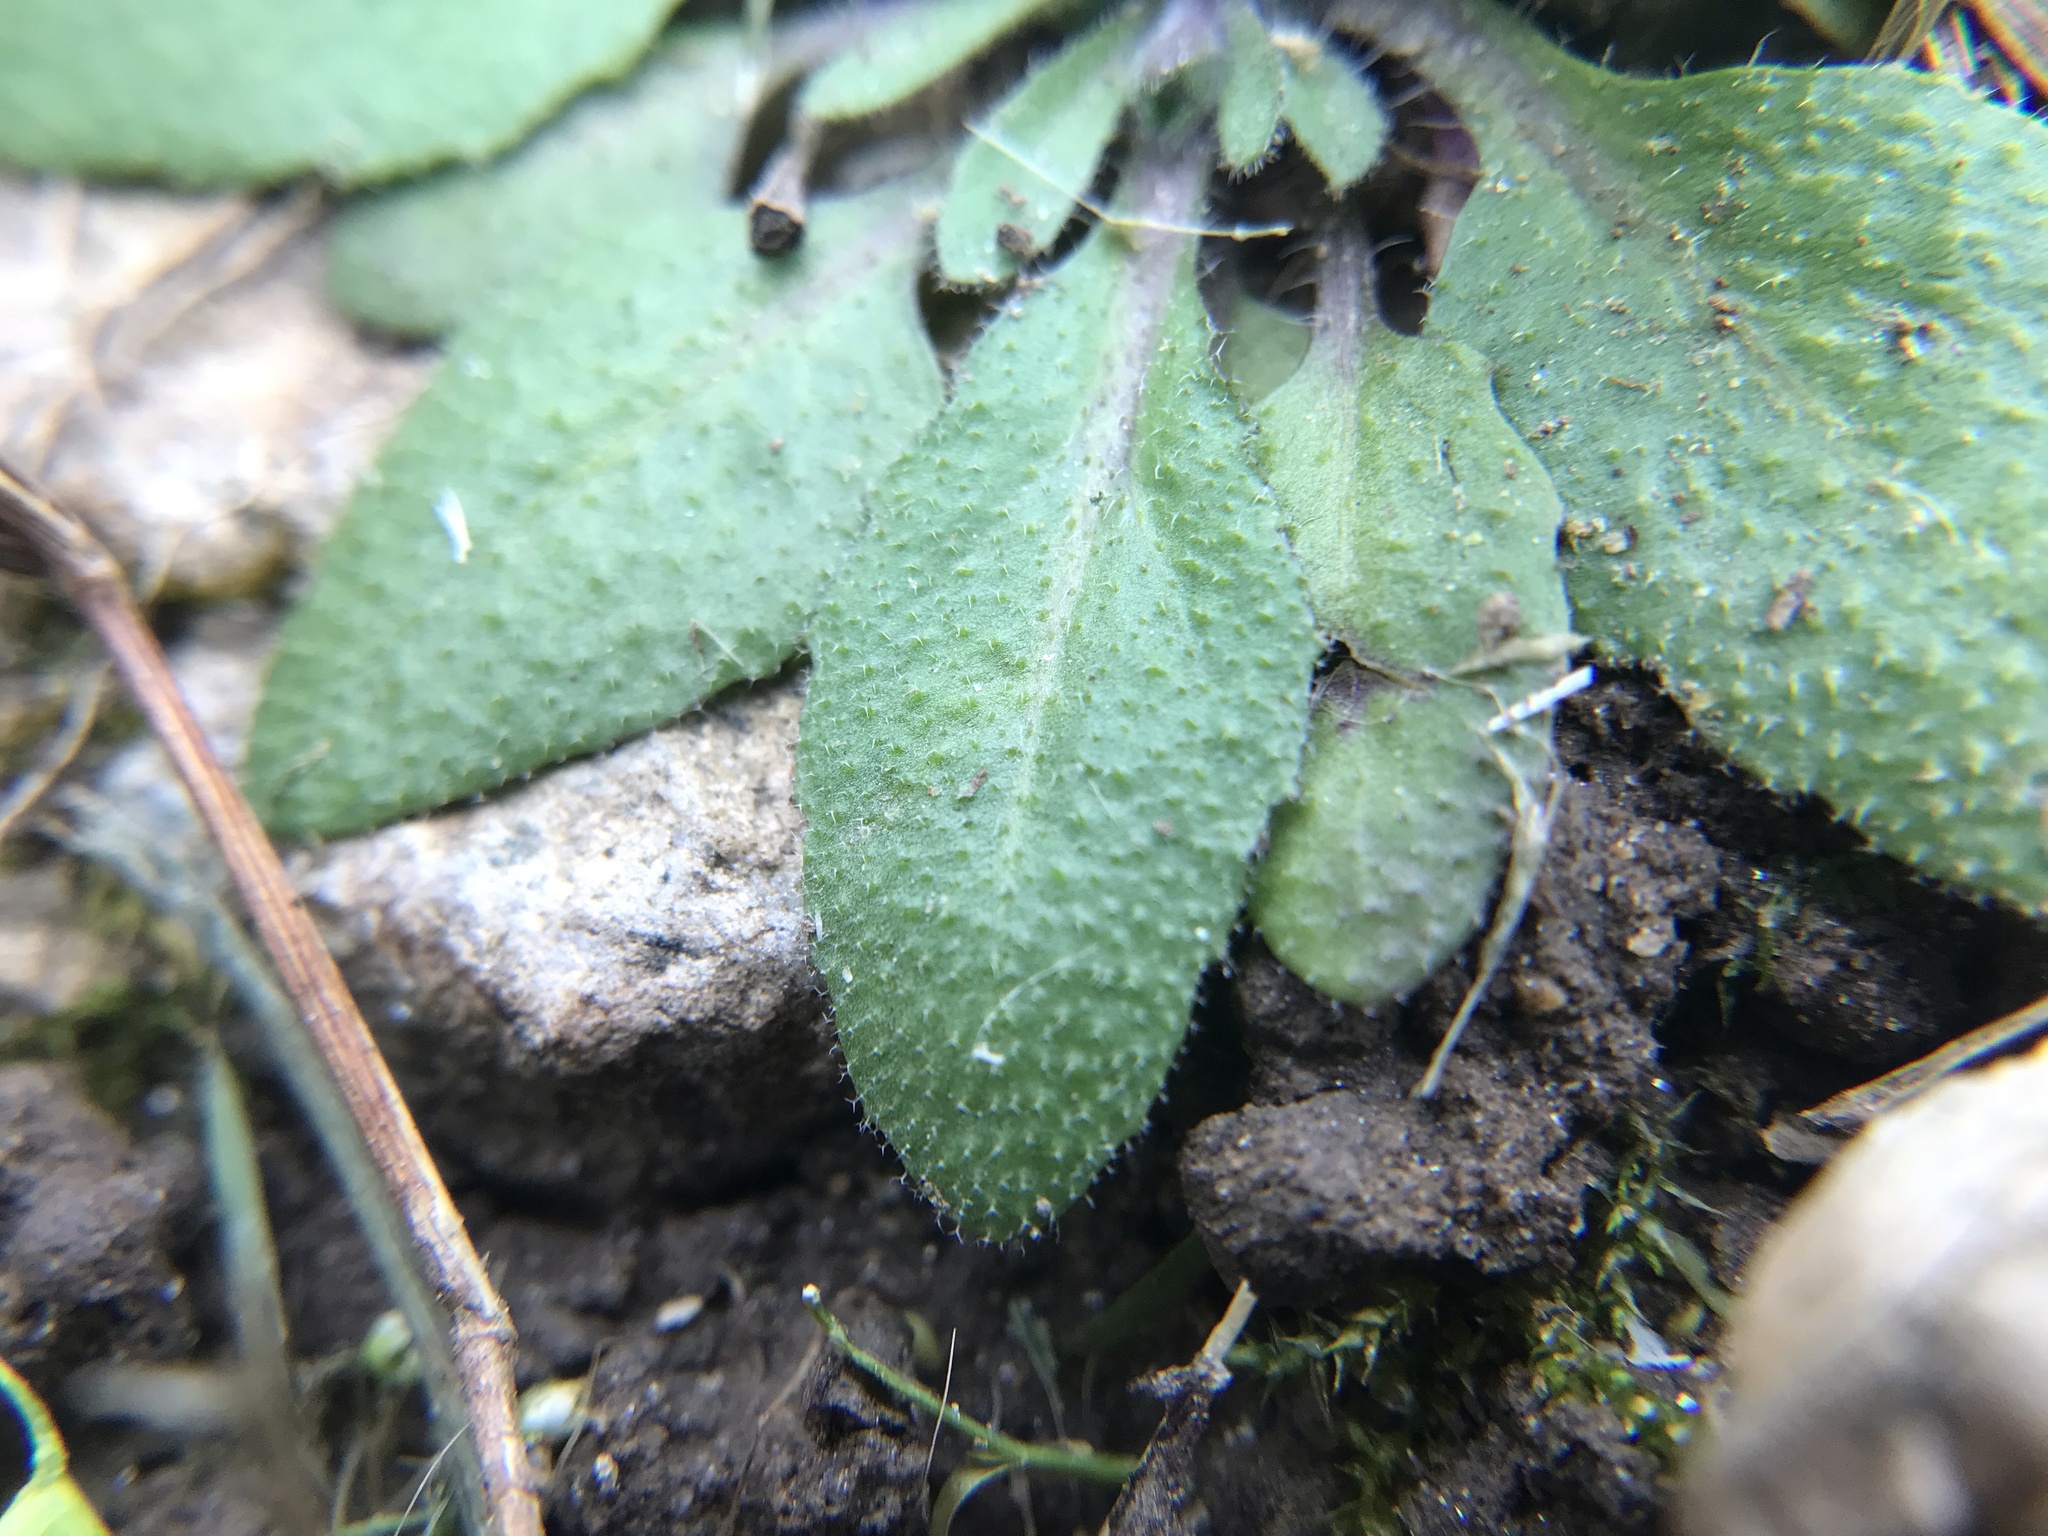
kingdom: Plantae
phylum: Tracheophyta
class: Magnoliopsida
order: Brassicales
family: Brassicaceae
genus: Arabidopsis
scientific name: Arabidopsis thaliana
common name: Thale cress
